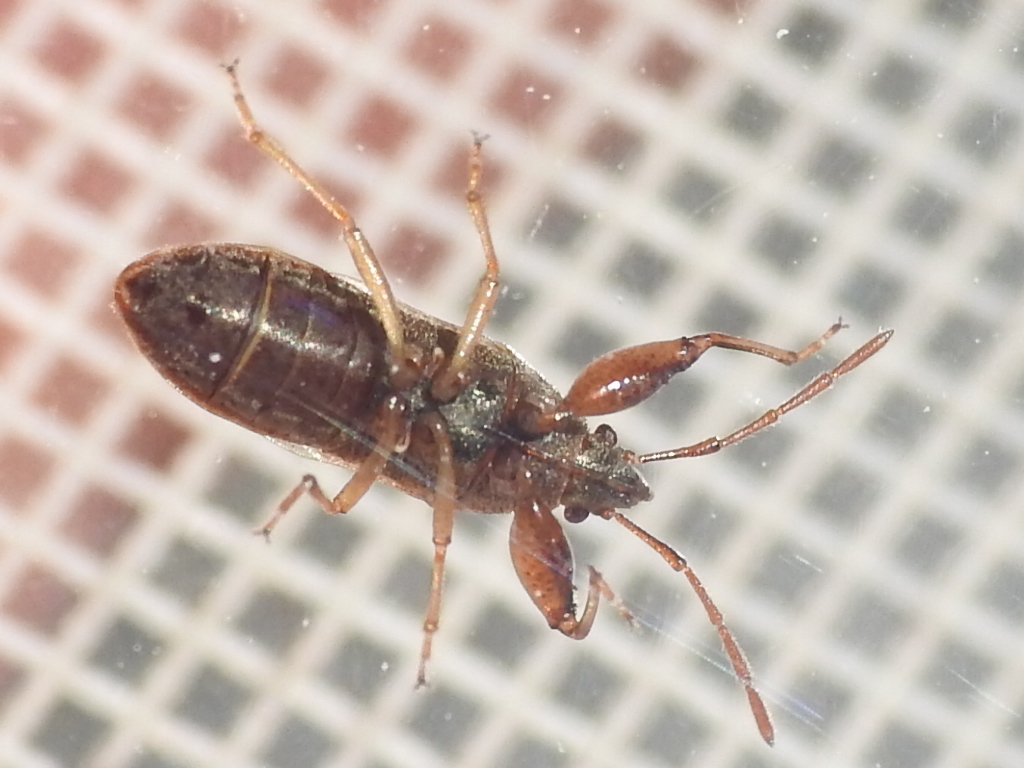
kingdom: Animalia
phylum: Arthropoda
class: Insecta
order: Hemiptera
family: Pachygronthidae
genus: Oedancala
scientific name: Oedancala dorsalis
